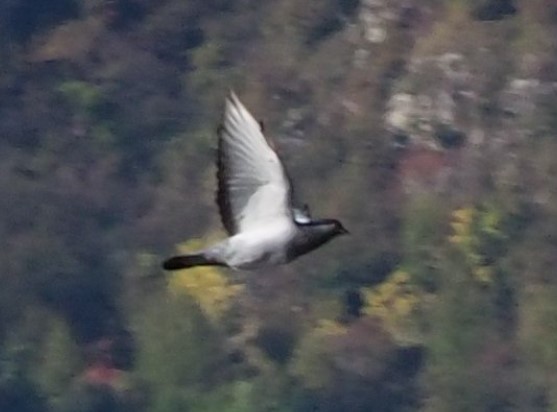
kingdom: Animalia
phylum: Chordata
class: Aves
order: Columbiformes
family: Columbidae
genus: Columba
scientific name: Columba livia
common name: Rock pigeon
